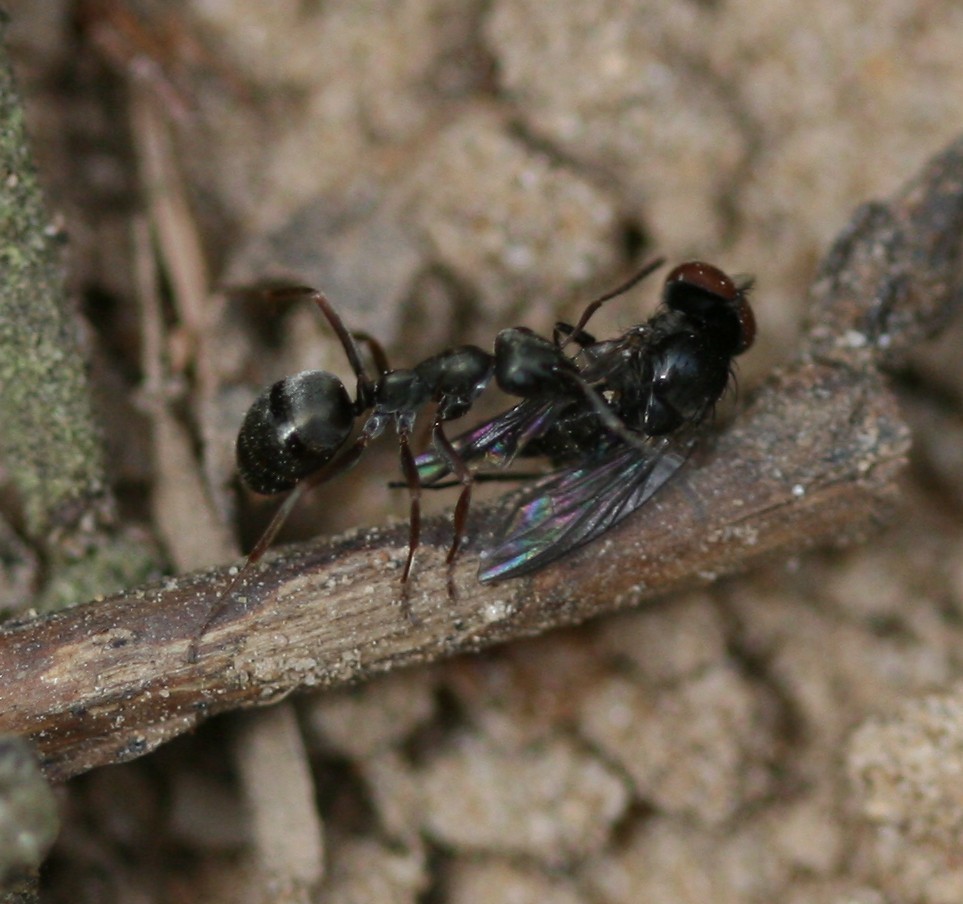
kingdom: Animalia
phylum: Arthropoda
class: Insecta
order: Hymenoptera
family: Formicidae
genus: Formica
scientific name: Formica
